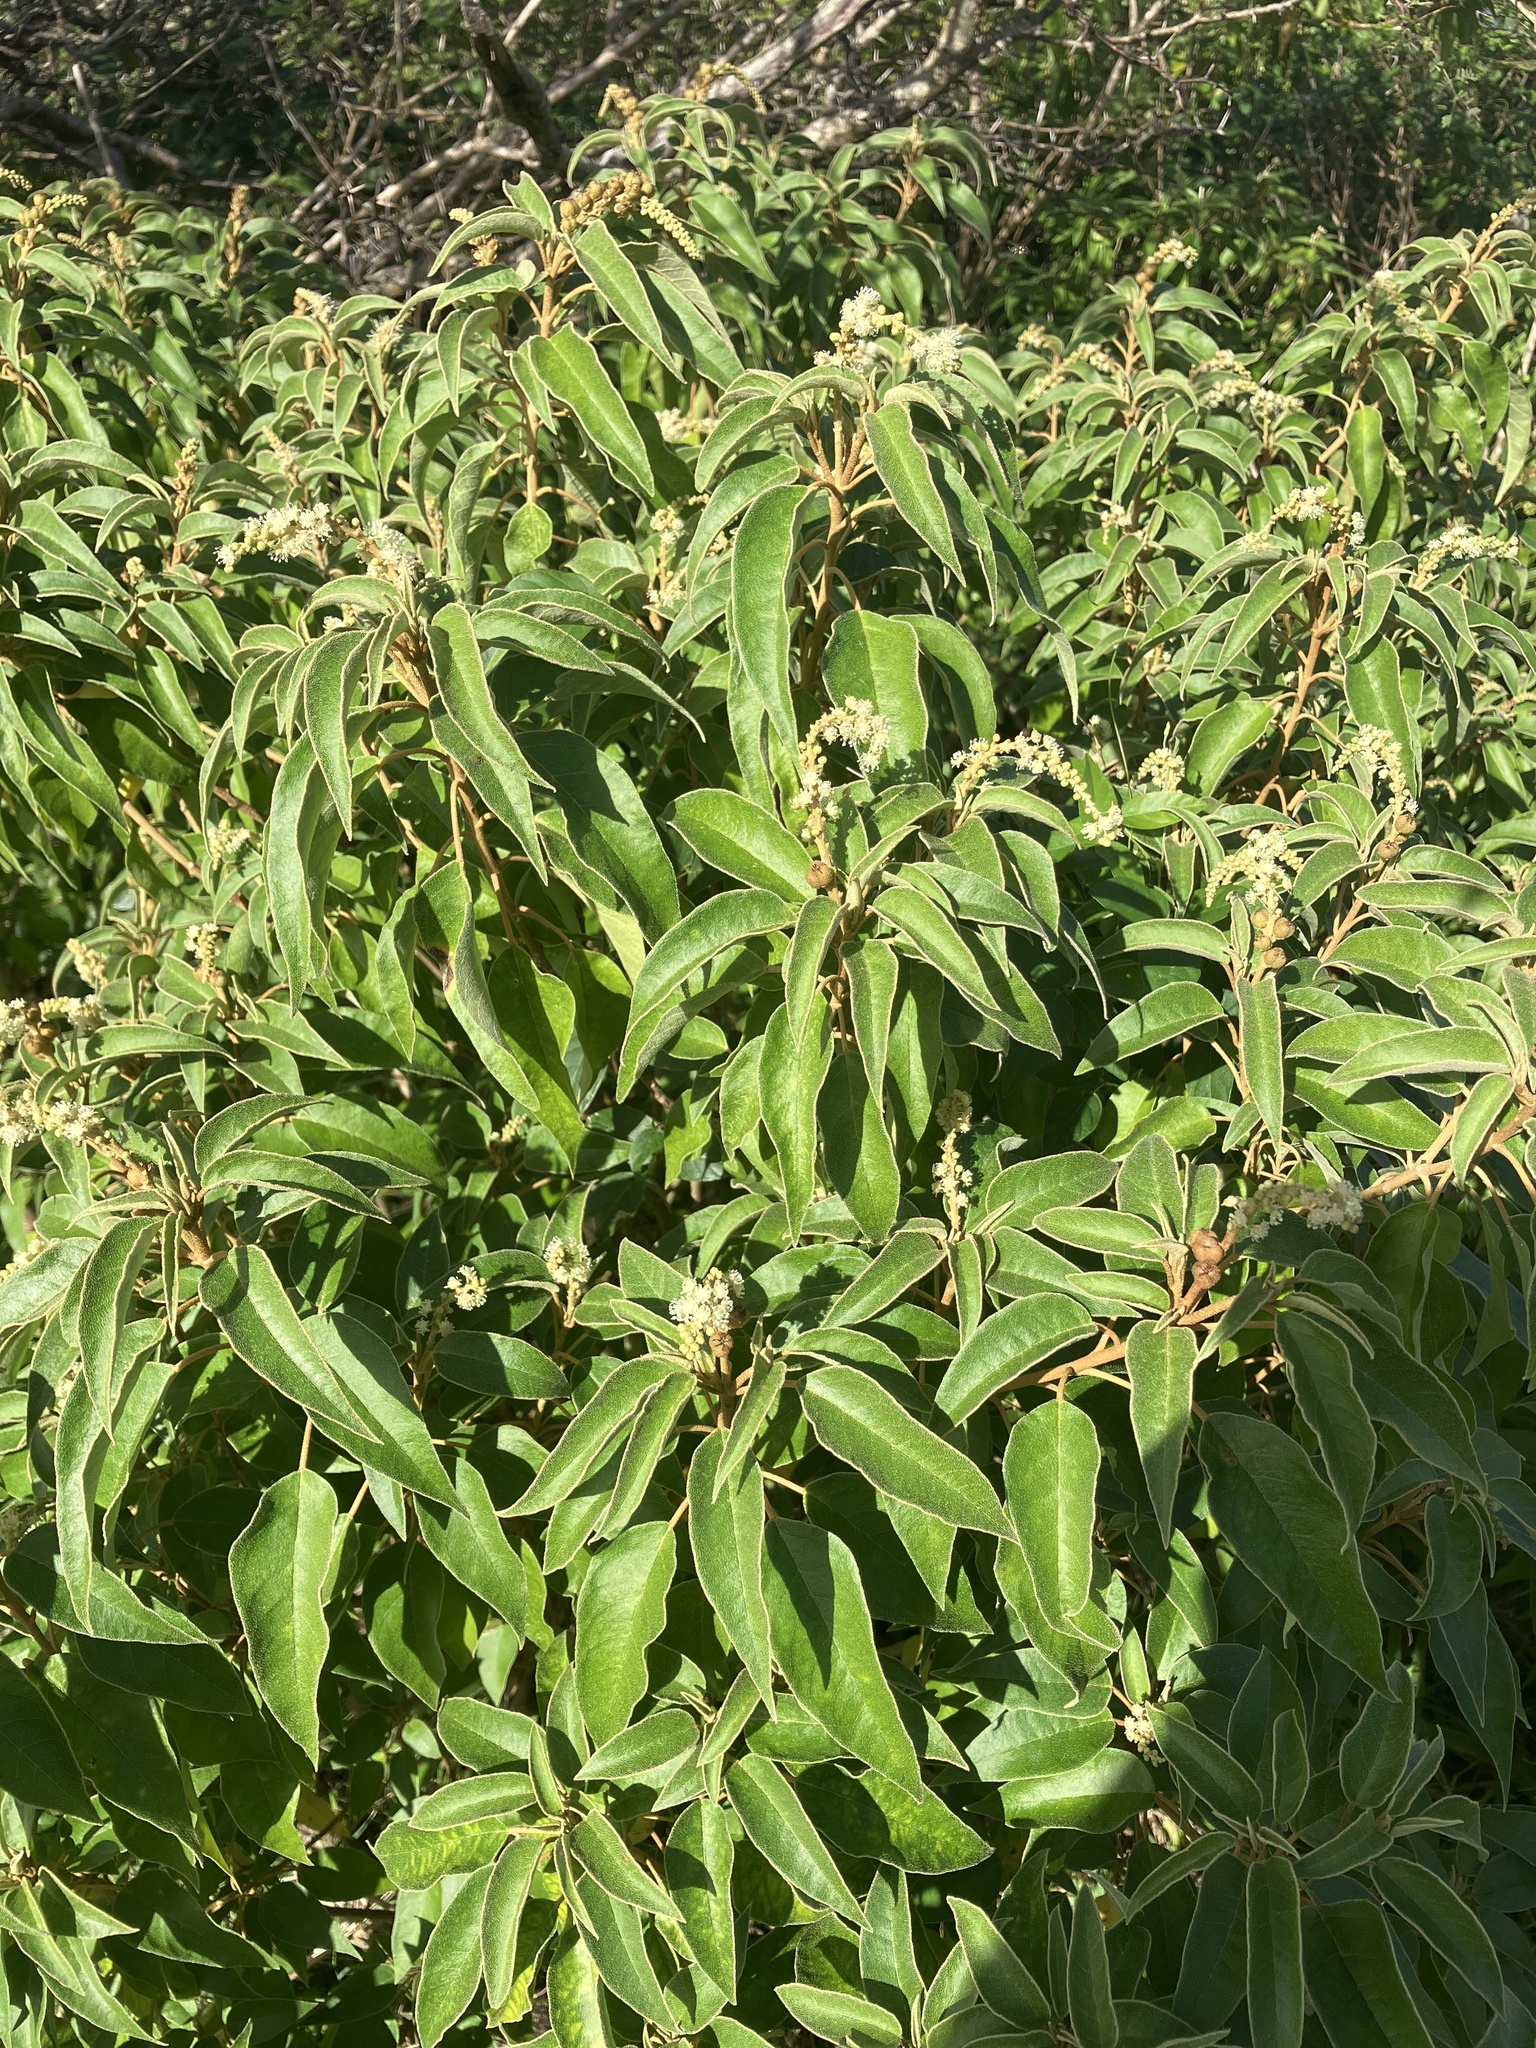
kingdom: Plantae
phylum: Tracheophyta
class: Magnoliopsida
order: Malpighiales
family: Euphorbiaceae
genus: Croton
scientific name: Croton flavens
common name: Yellow balsam
